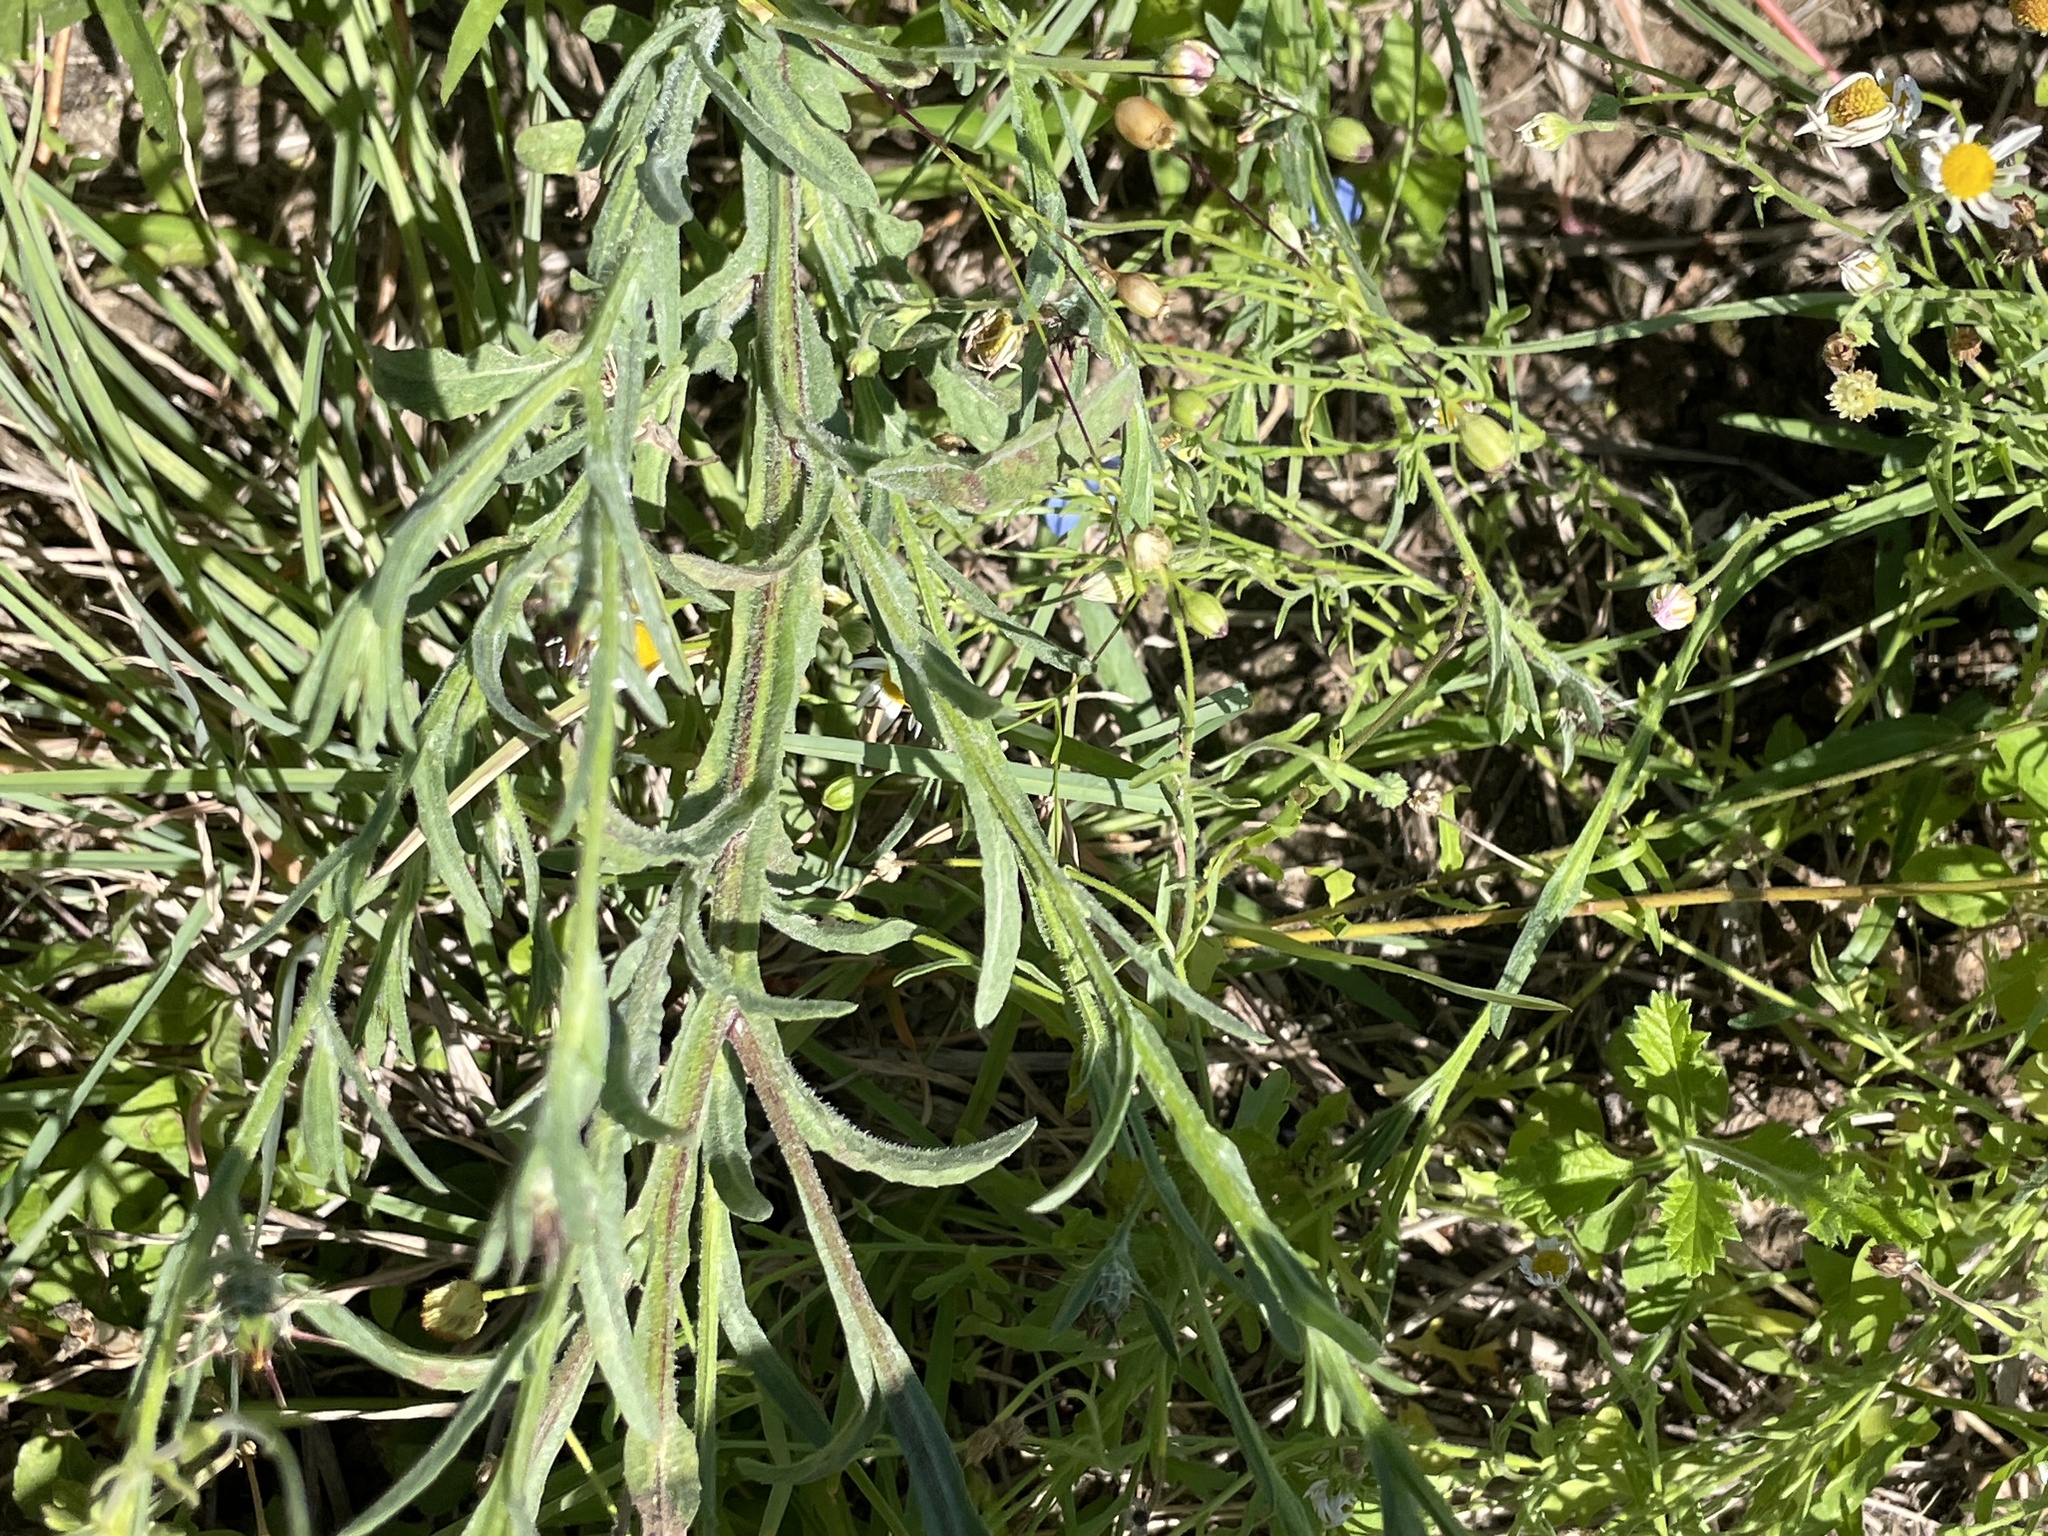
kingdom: Plantae
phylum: Tracheophyta
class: Magnoliopsida
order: Asterales
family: Asteraceae
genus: Centaurea
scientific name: Centaurea melitensis
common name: Maltese star-thistle
